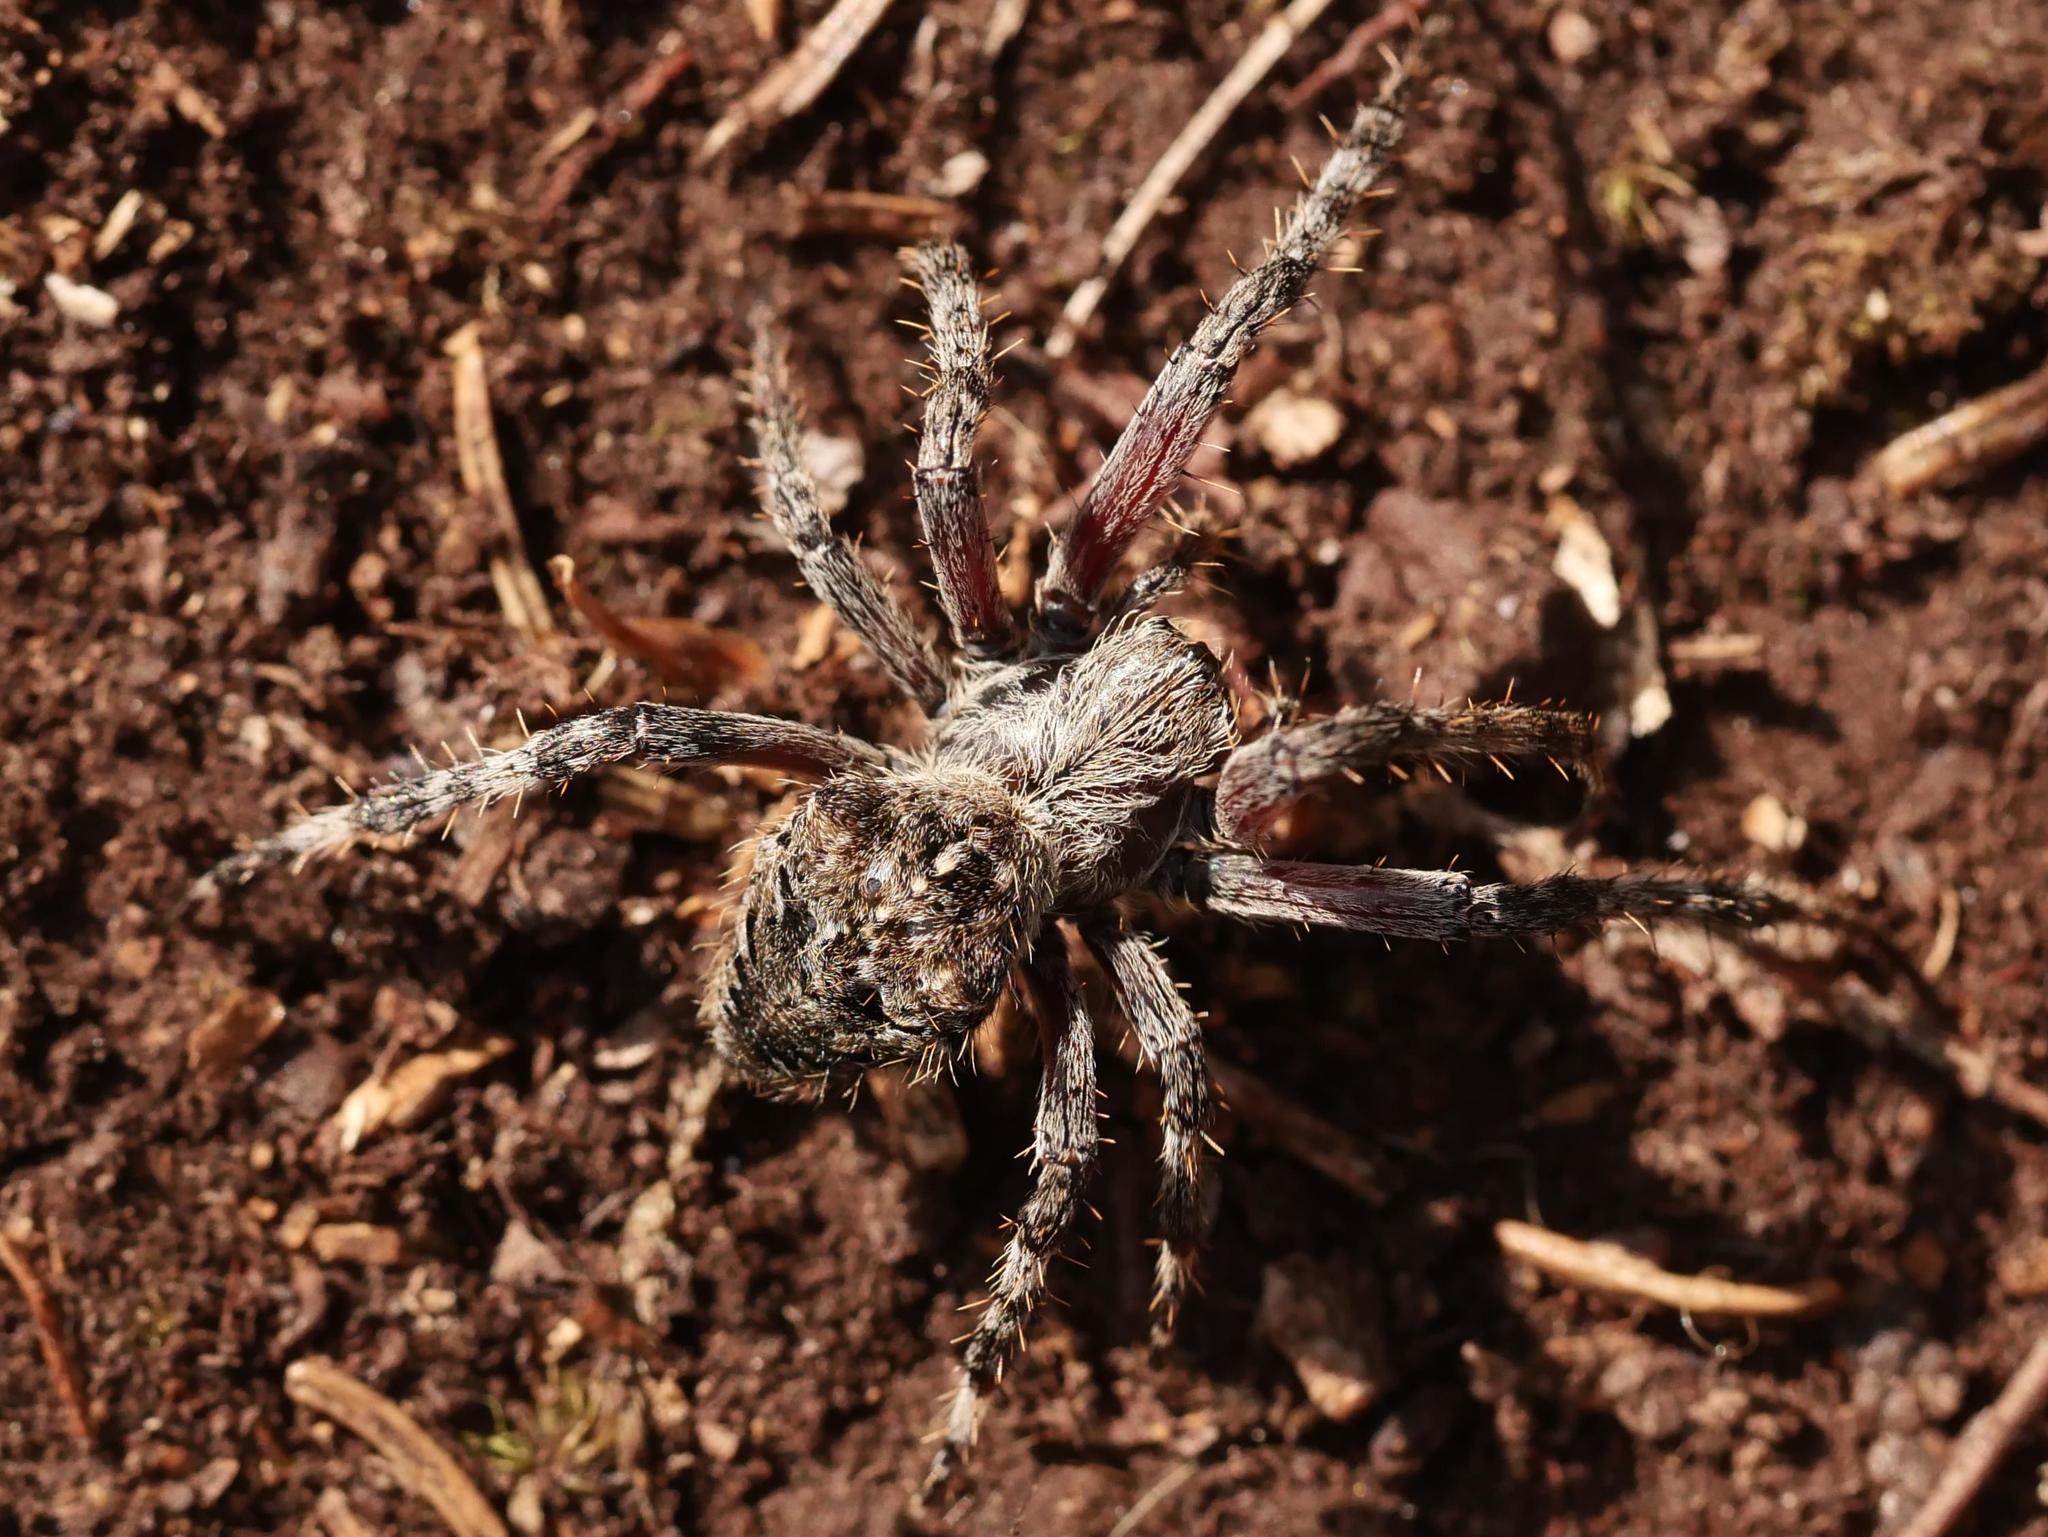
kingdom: Animalia
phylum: Arthropoda
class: Arachnida
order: Araneae
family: Araneidae
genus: Araneus
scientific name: Araneus saevus
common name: Fierce orbweaver
